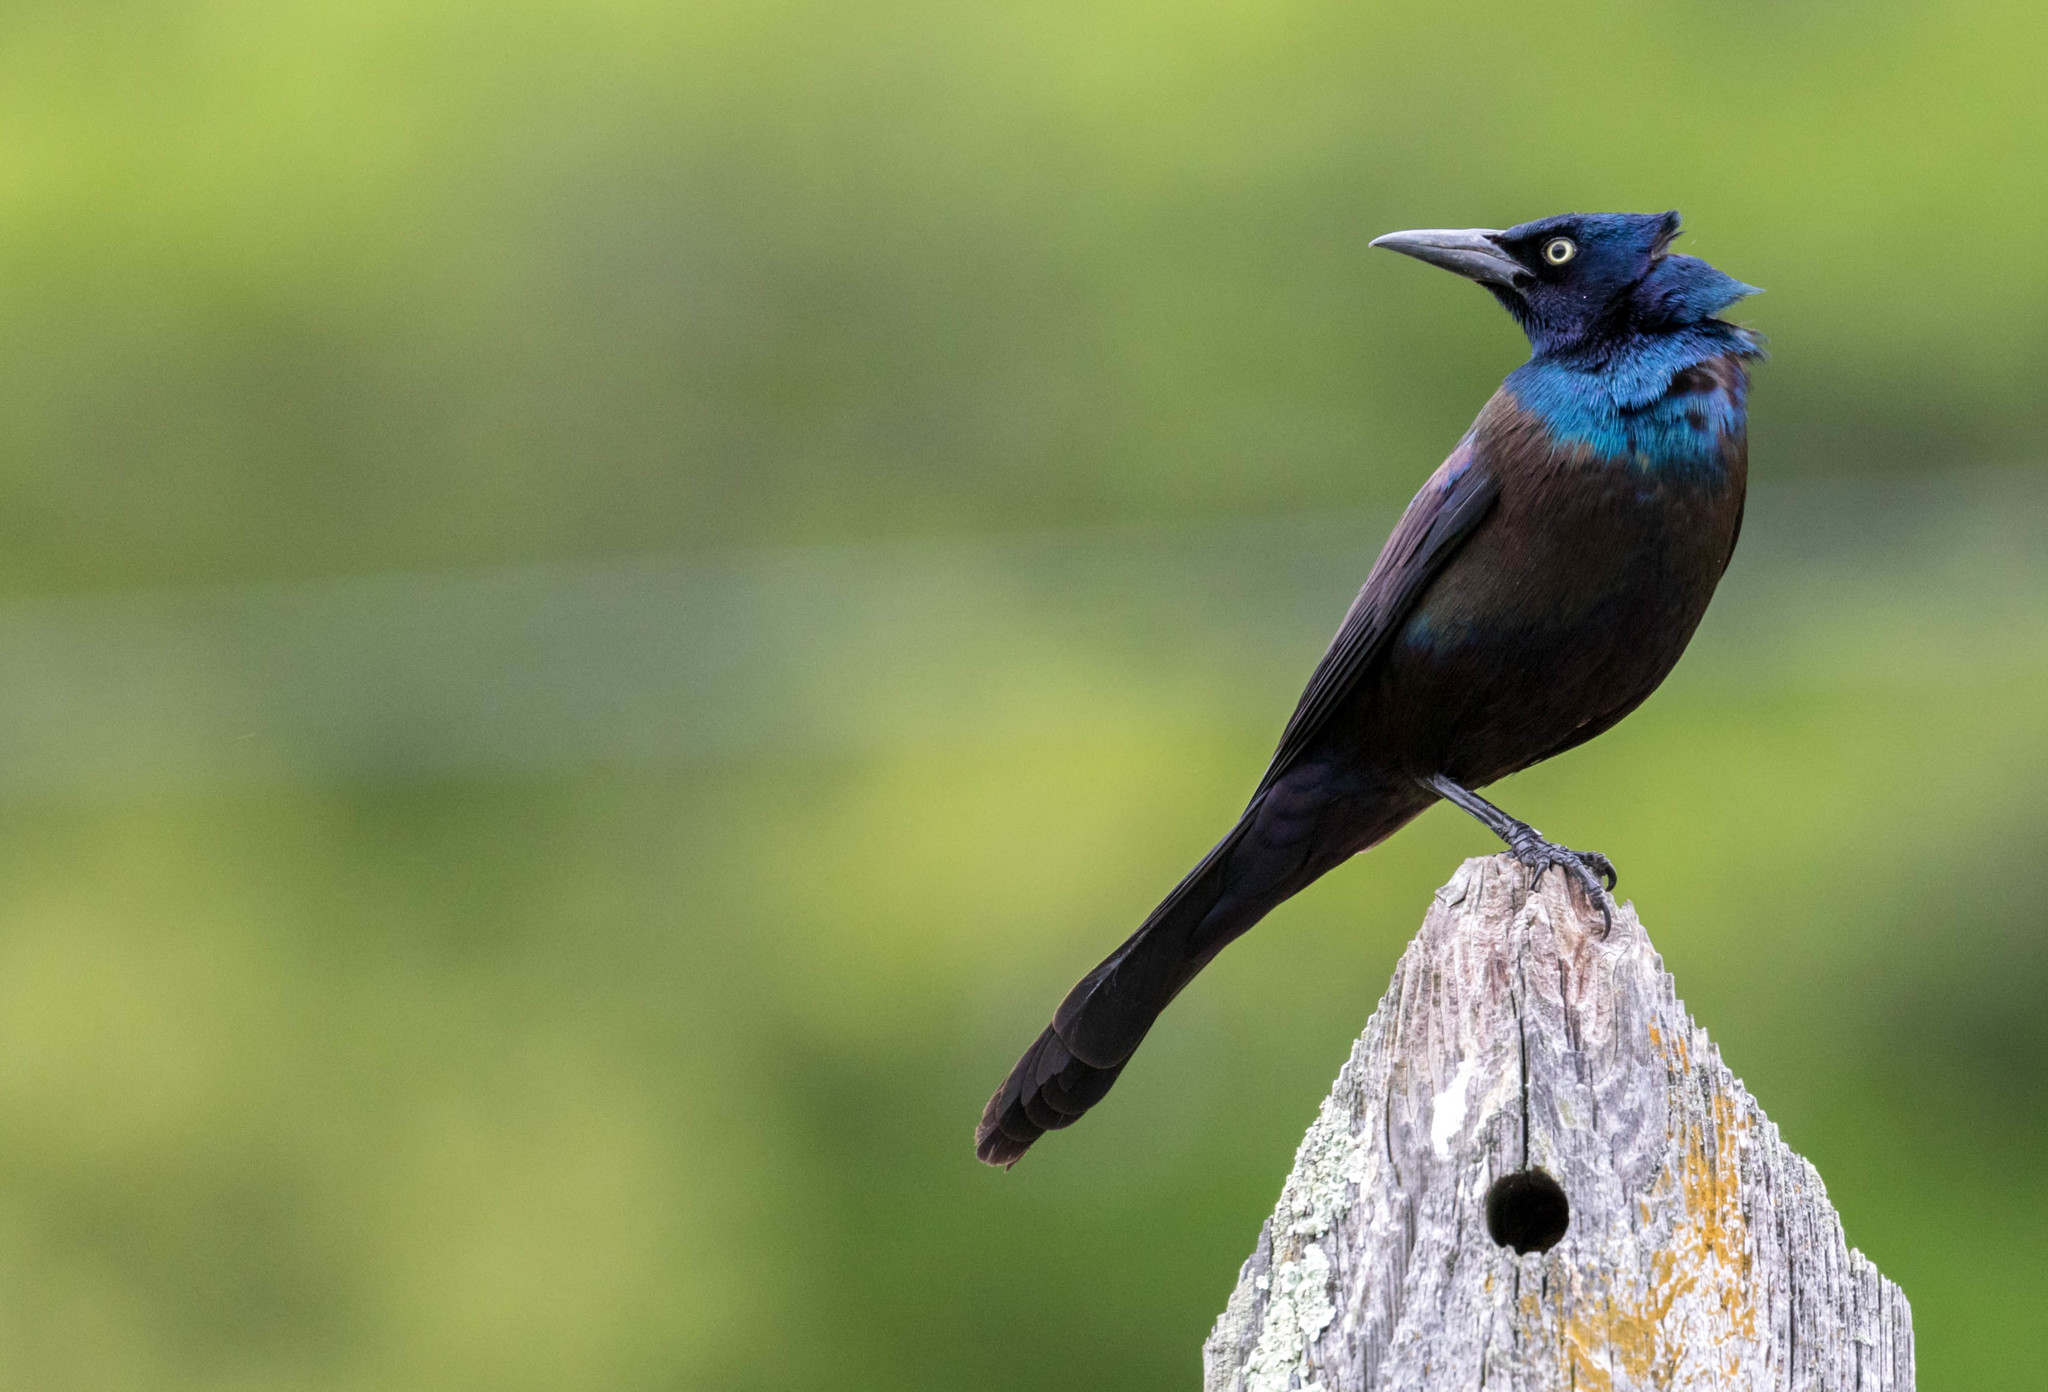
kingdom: Animalia
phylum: Chordata
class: Aves
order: Passeriformes
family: Icteridae
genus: Quiscalus
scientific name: Quiscalus quiscula
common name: Common grackle
